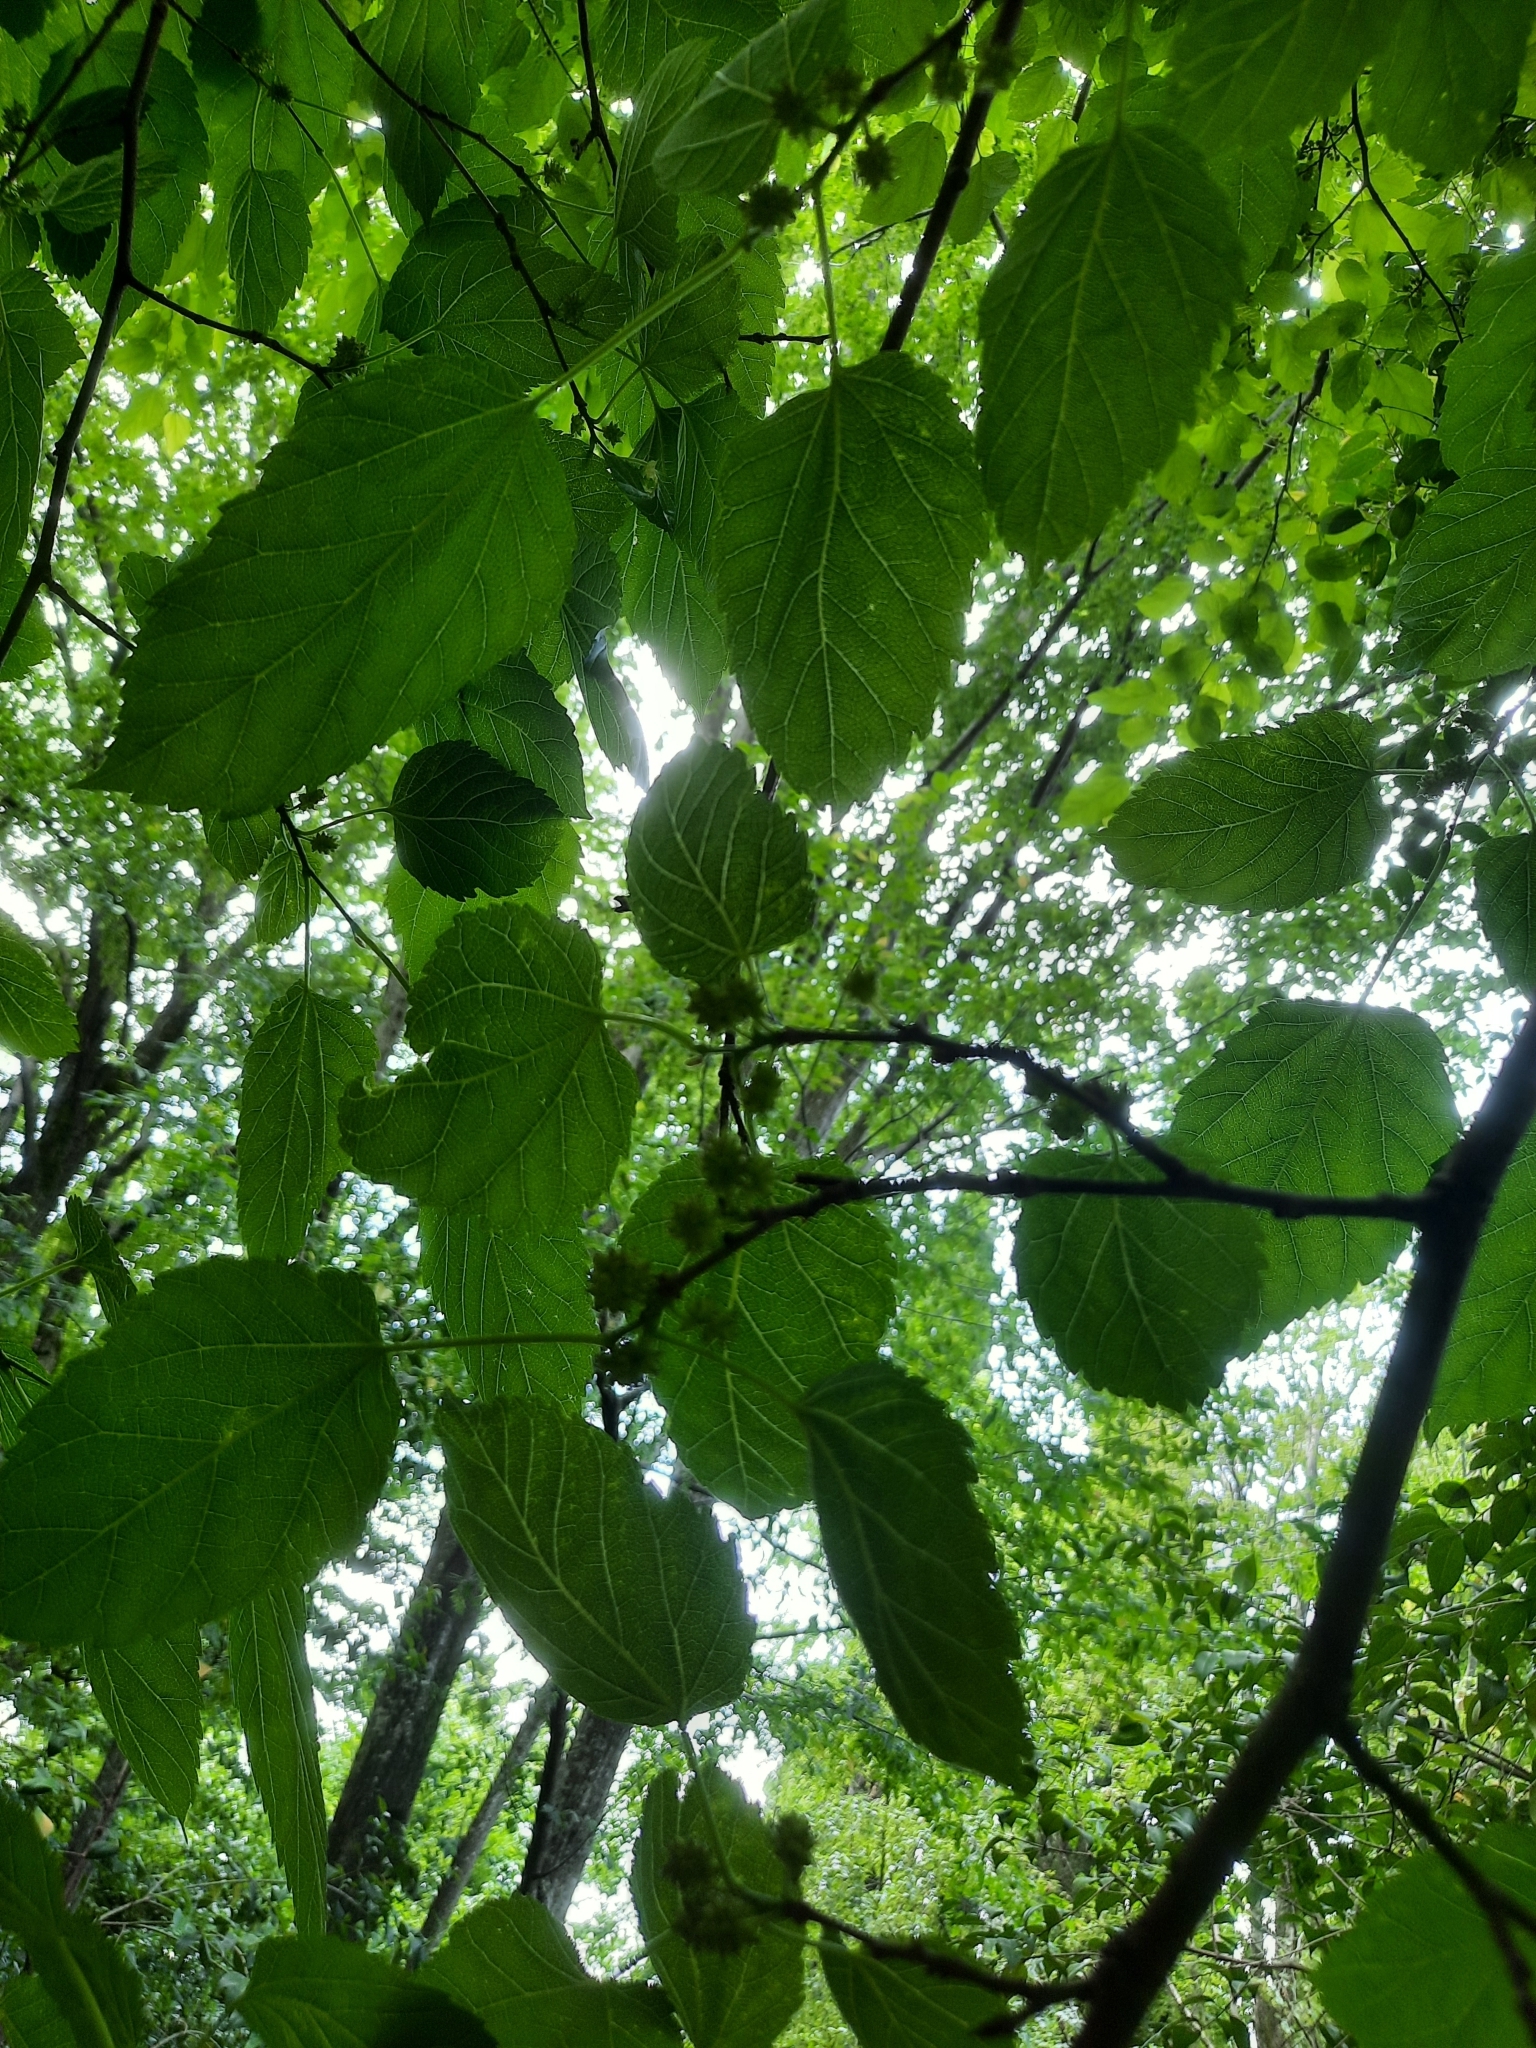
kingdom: Plantae
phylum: Tracheophyta
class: Magnoliopsida
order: Rosales
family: Moraceae
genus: Morus
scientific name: Morus alba
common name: White mulberry
